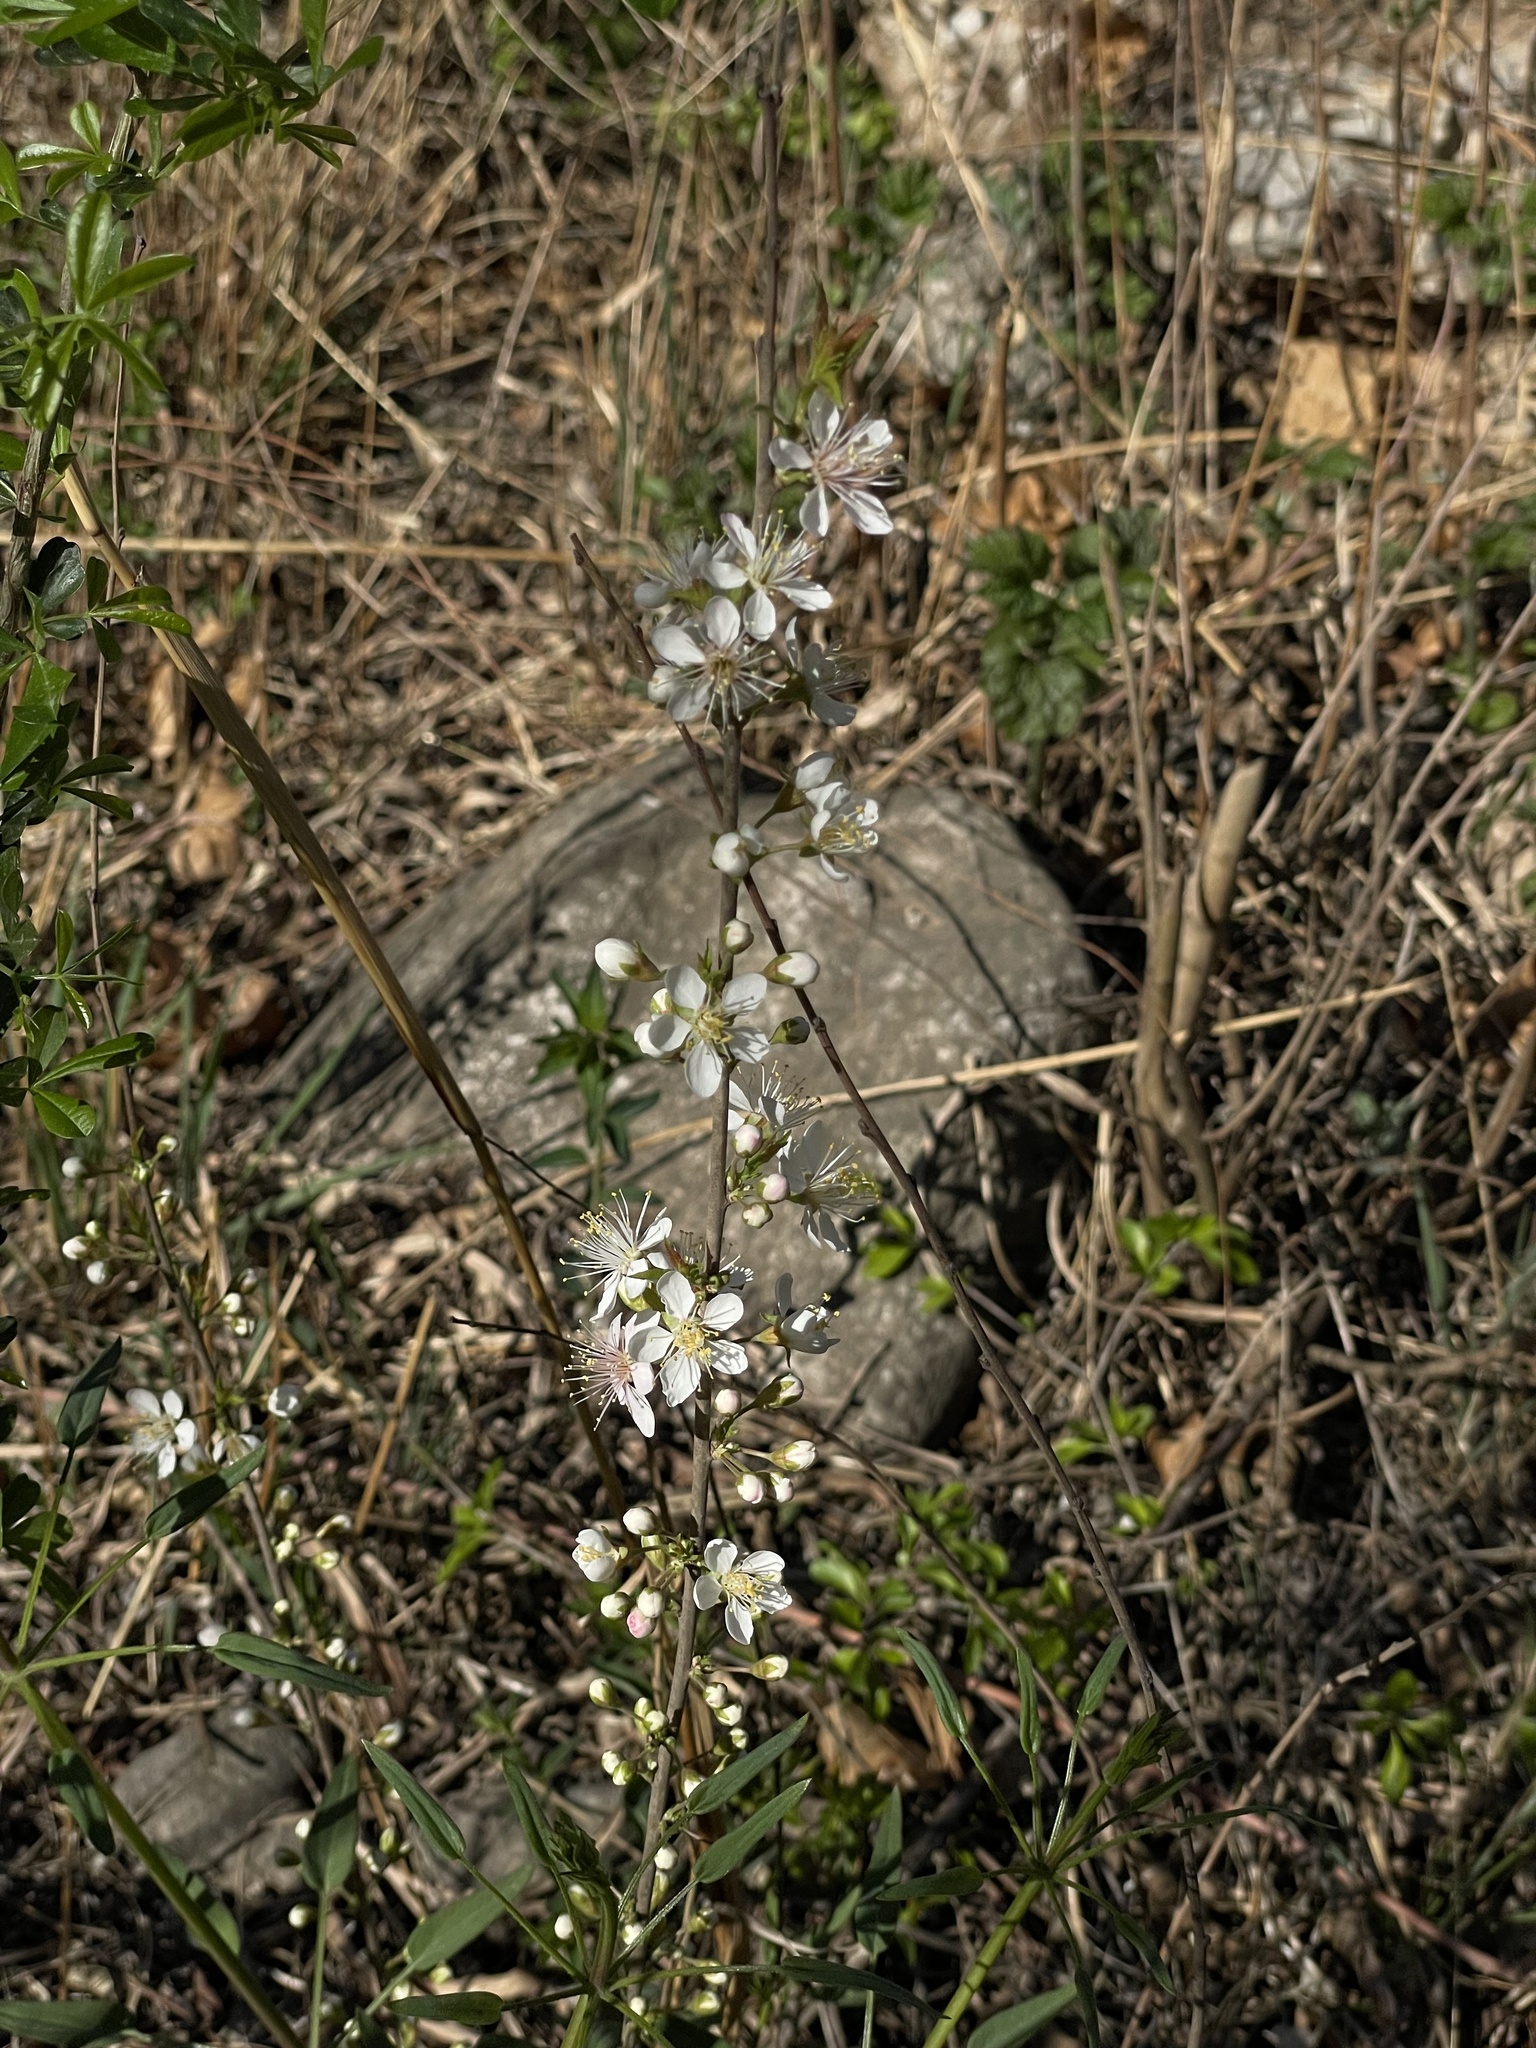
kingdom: Plantae
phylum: Tracheophyta
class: Magnoliopsida
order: Rosales
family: Rosaceae
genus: Prunus
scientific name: Prunus humilis
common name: Humble bush cherry
